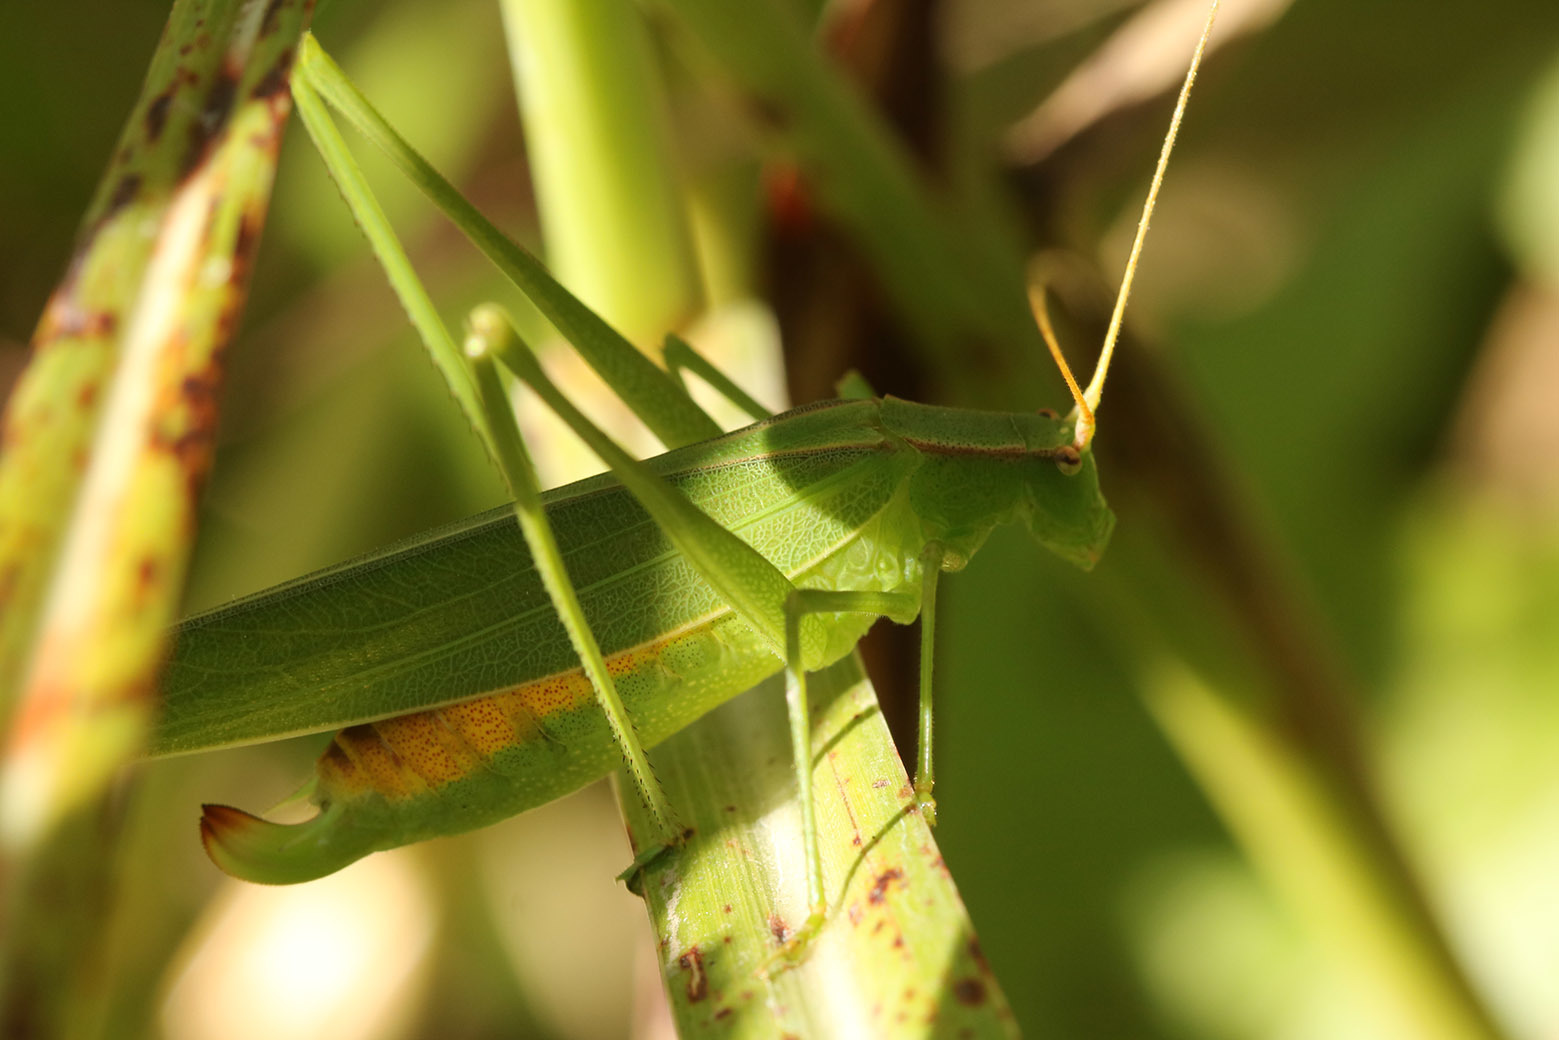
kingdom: Animalia
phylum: Arthropoda
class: Insecta
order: Orthoptera
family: Tettigoniidae
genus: Hyperophora
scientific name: Hyperophora major
